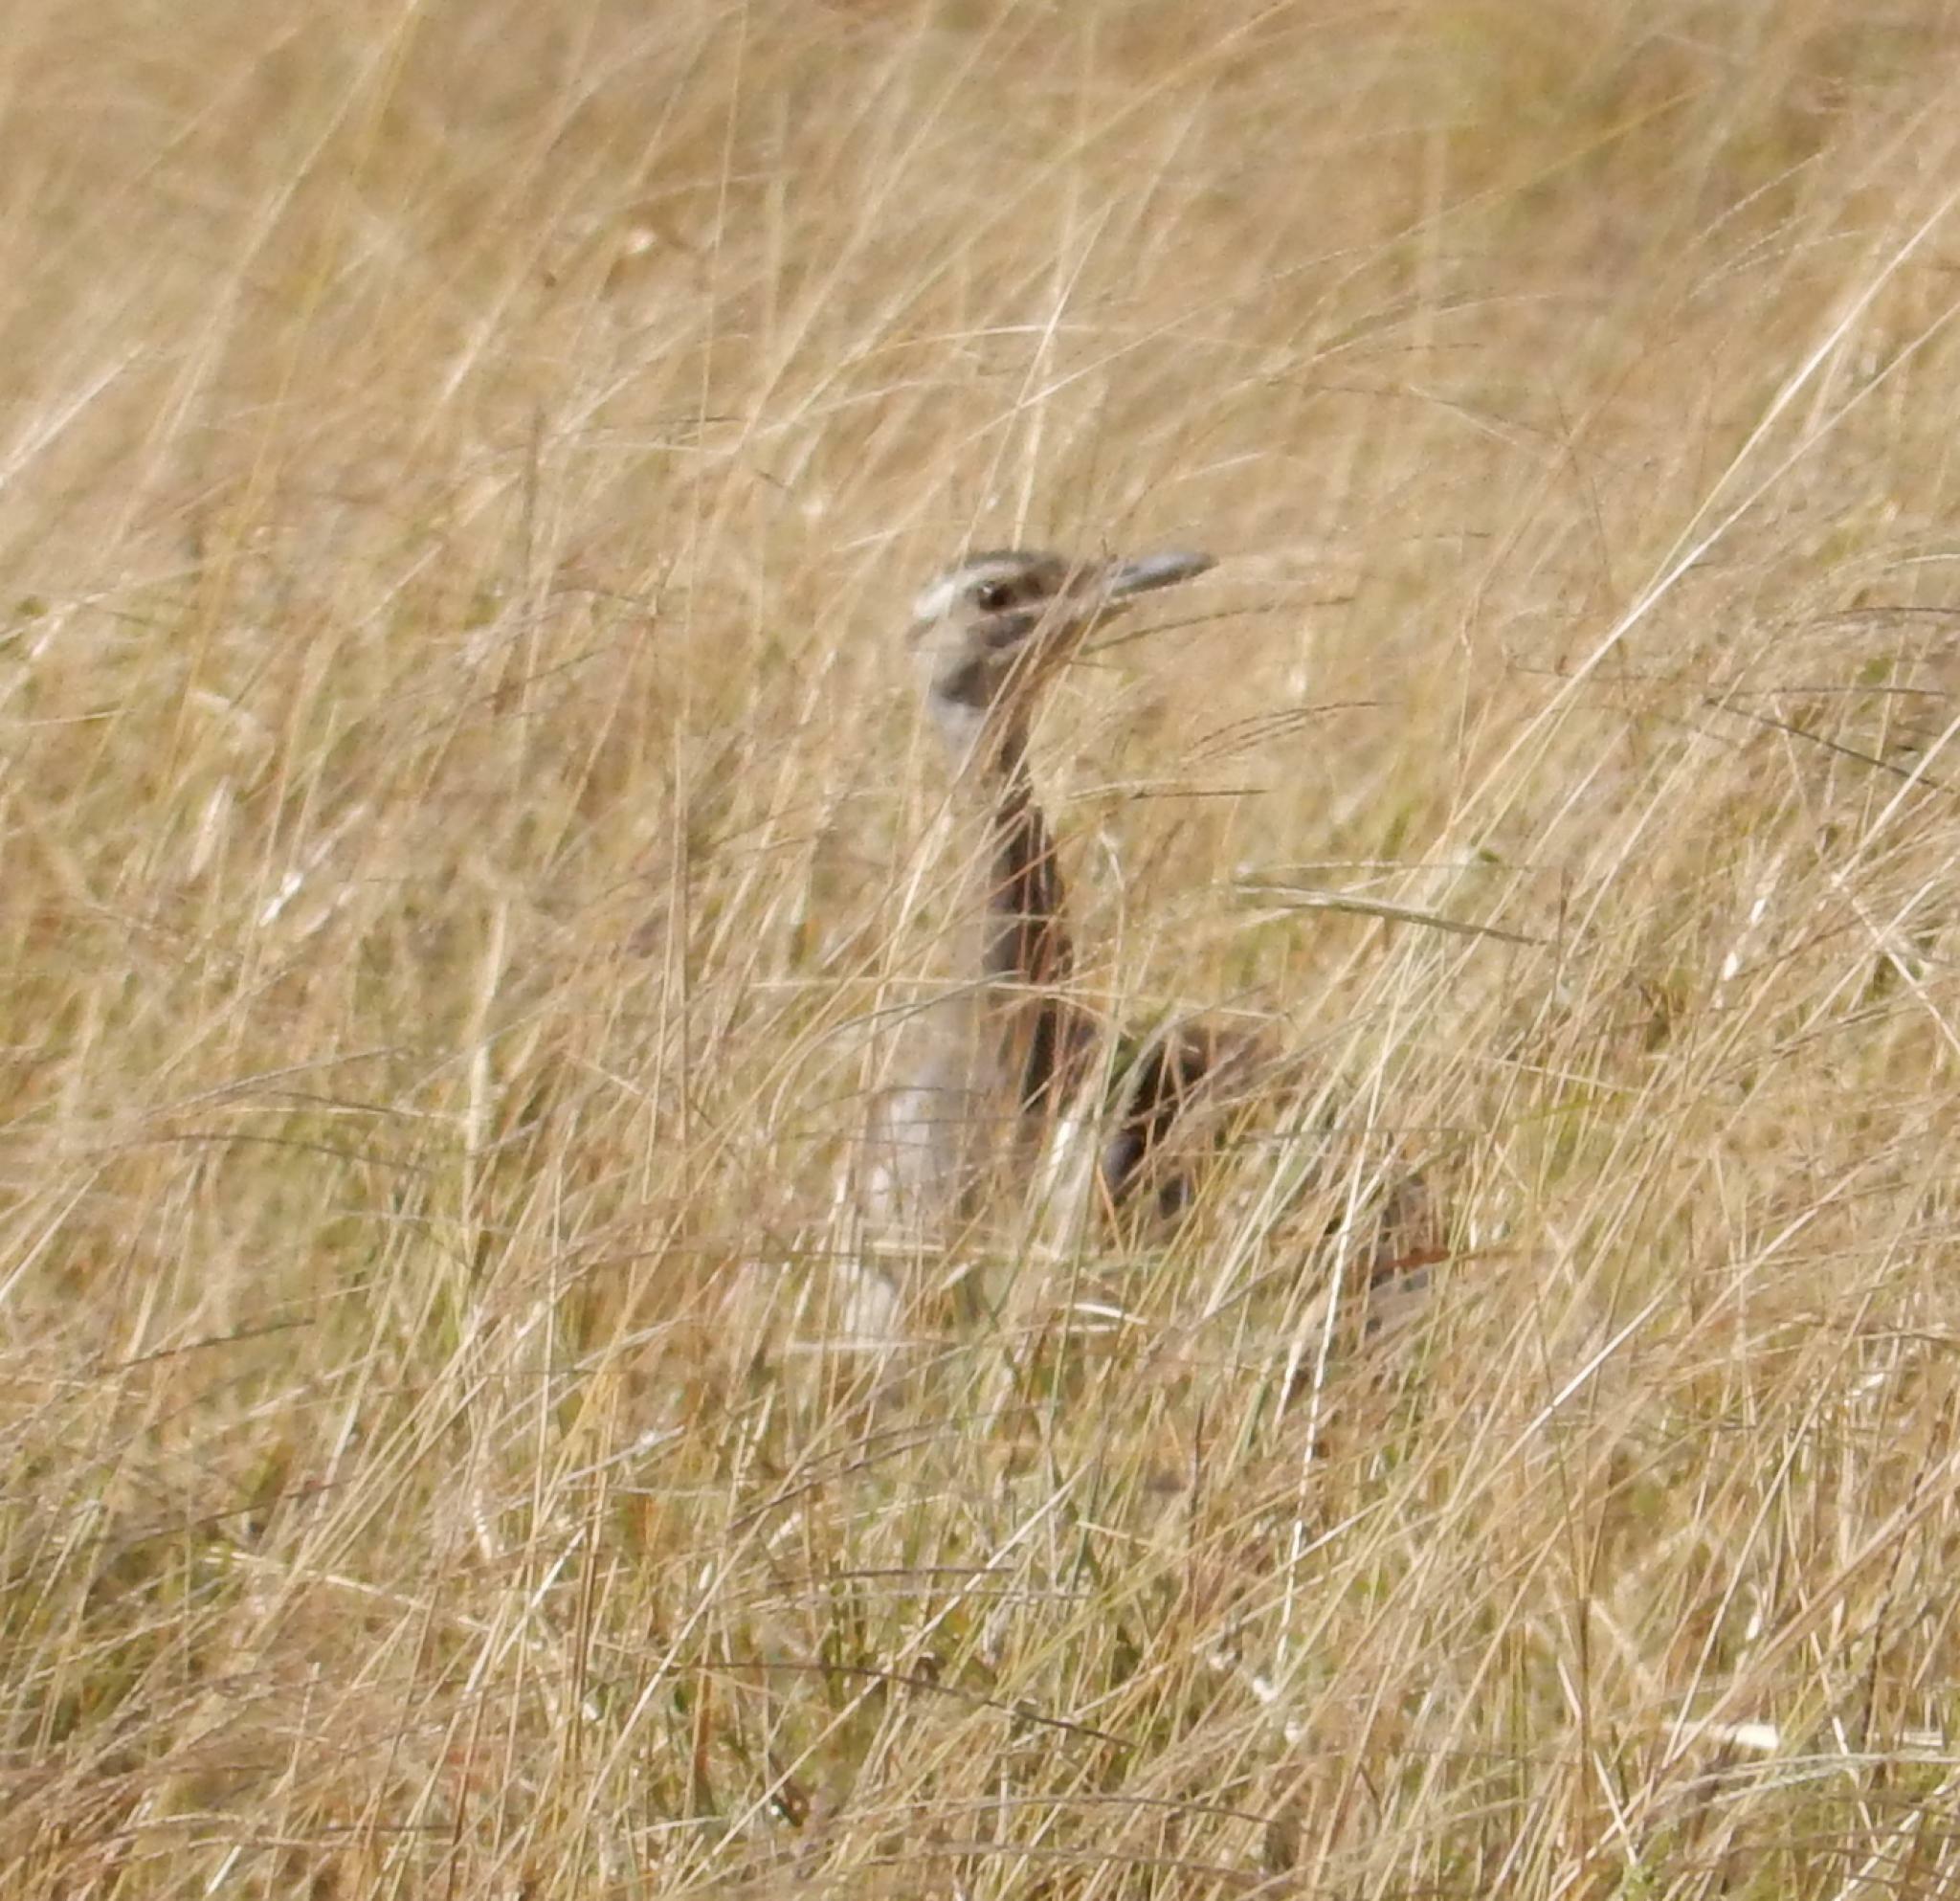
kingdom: Animalia
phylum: Chordata
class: Aves
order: Otidiformes
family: Otididae
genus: Neotis
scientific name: Neotis denhami
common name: Denham's bustard
